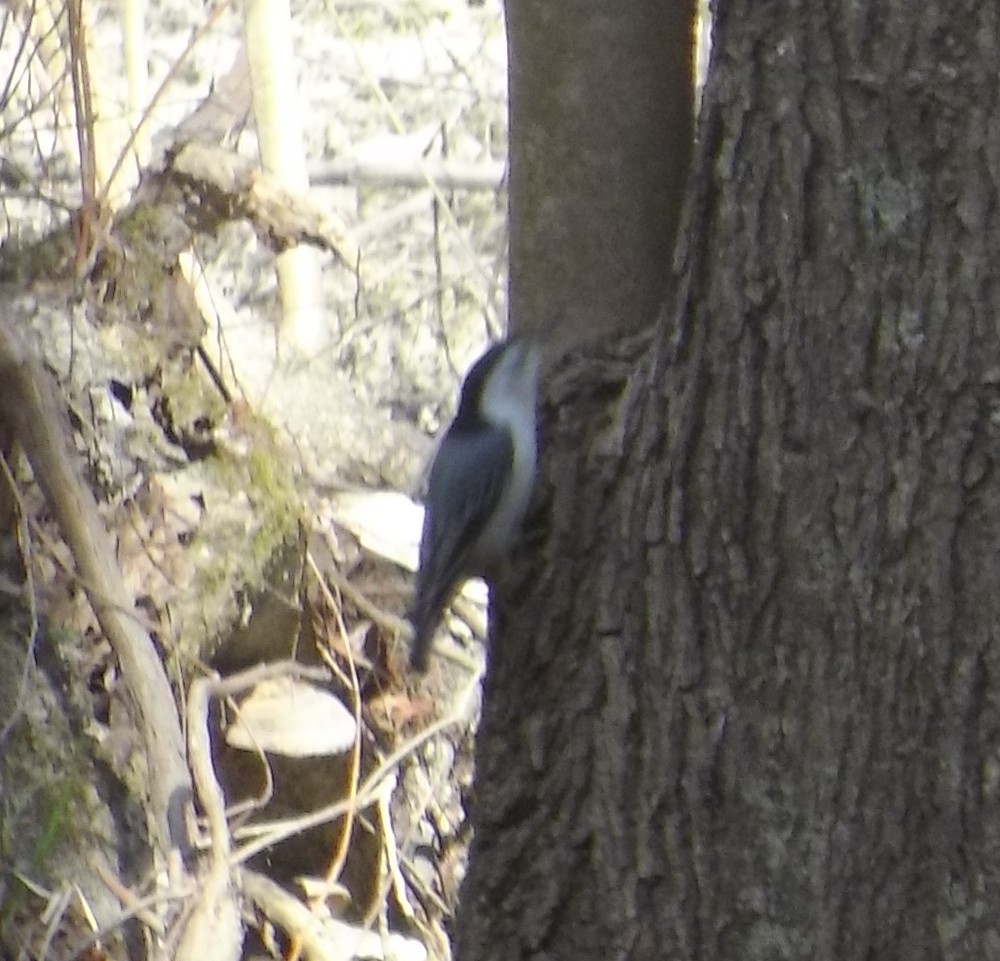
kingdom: Animalia
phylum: Chordata
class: Aves
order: Passeriformes
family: Sittidae
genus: Sitta
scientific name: Sitta carolinensis
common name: White-breasted nuthatch
